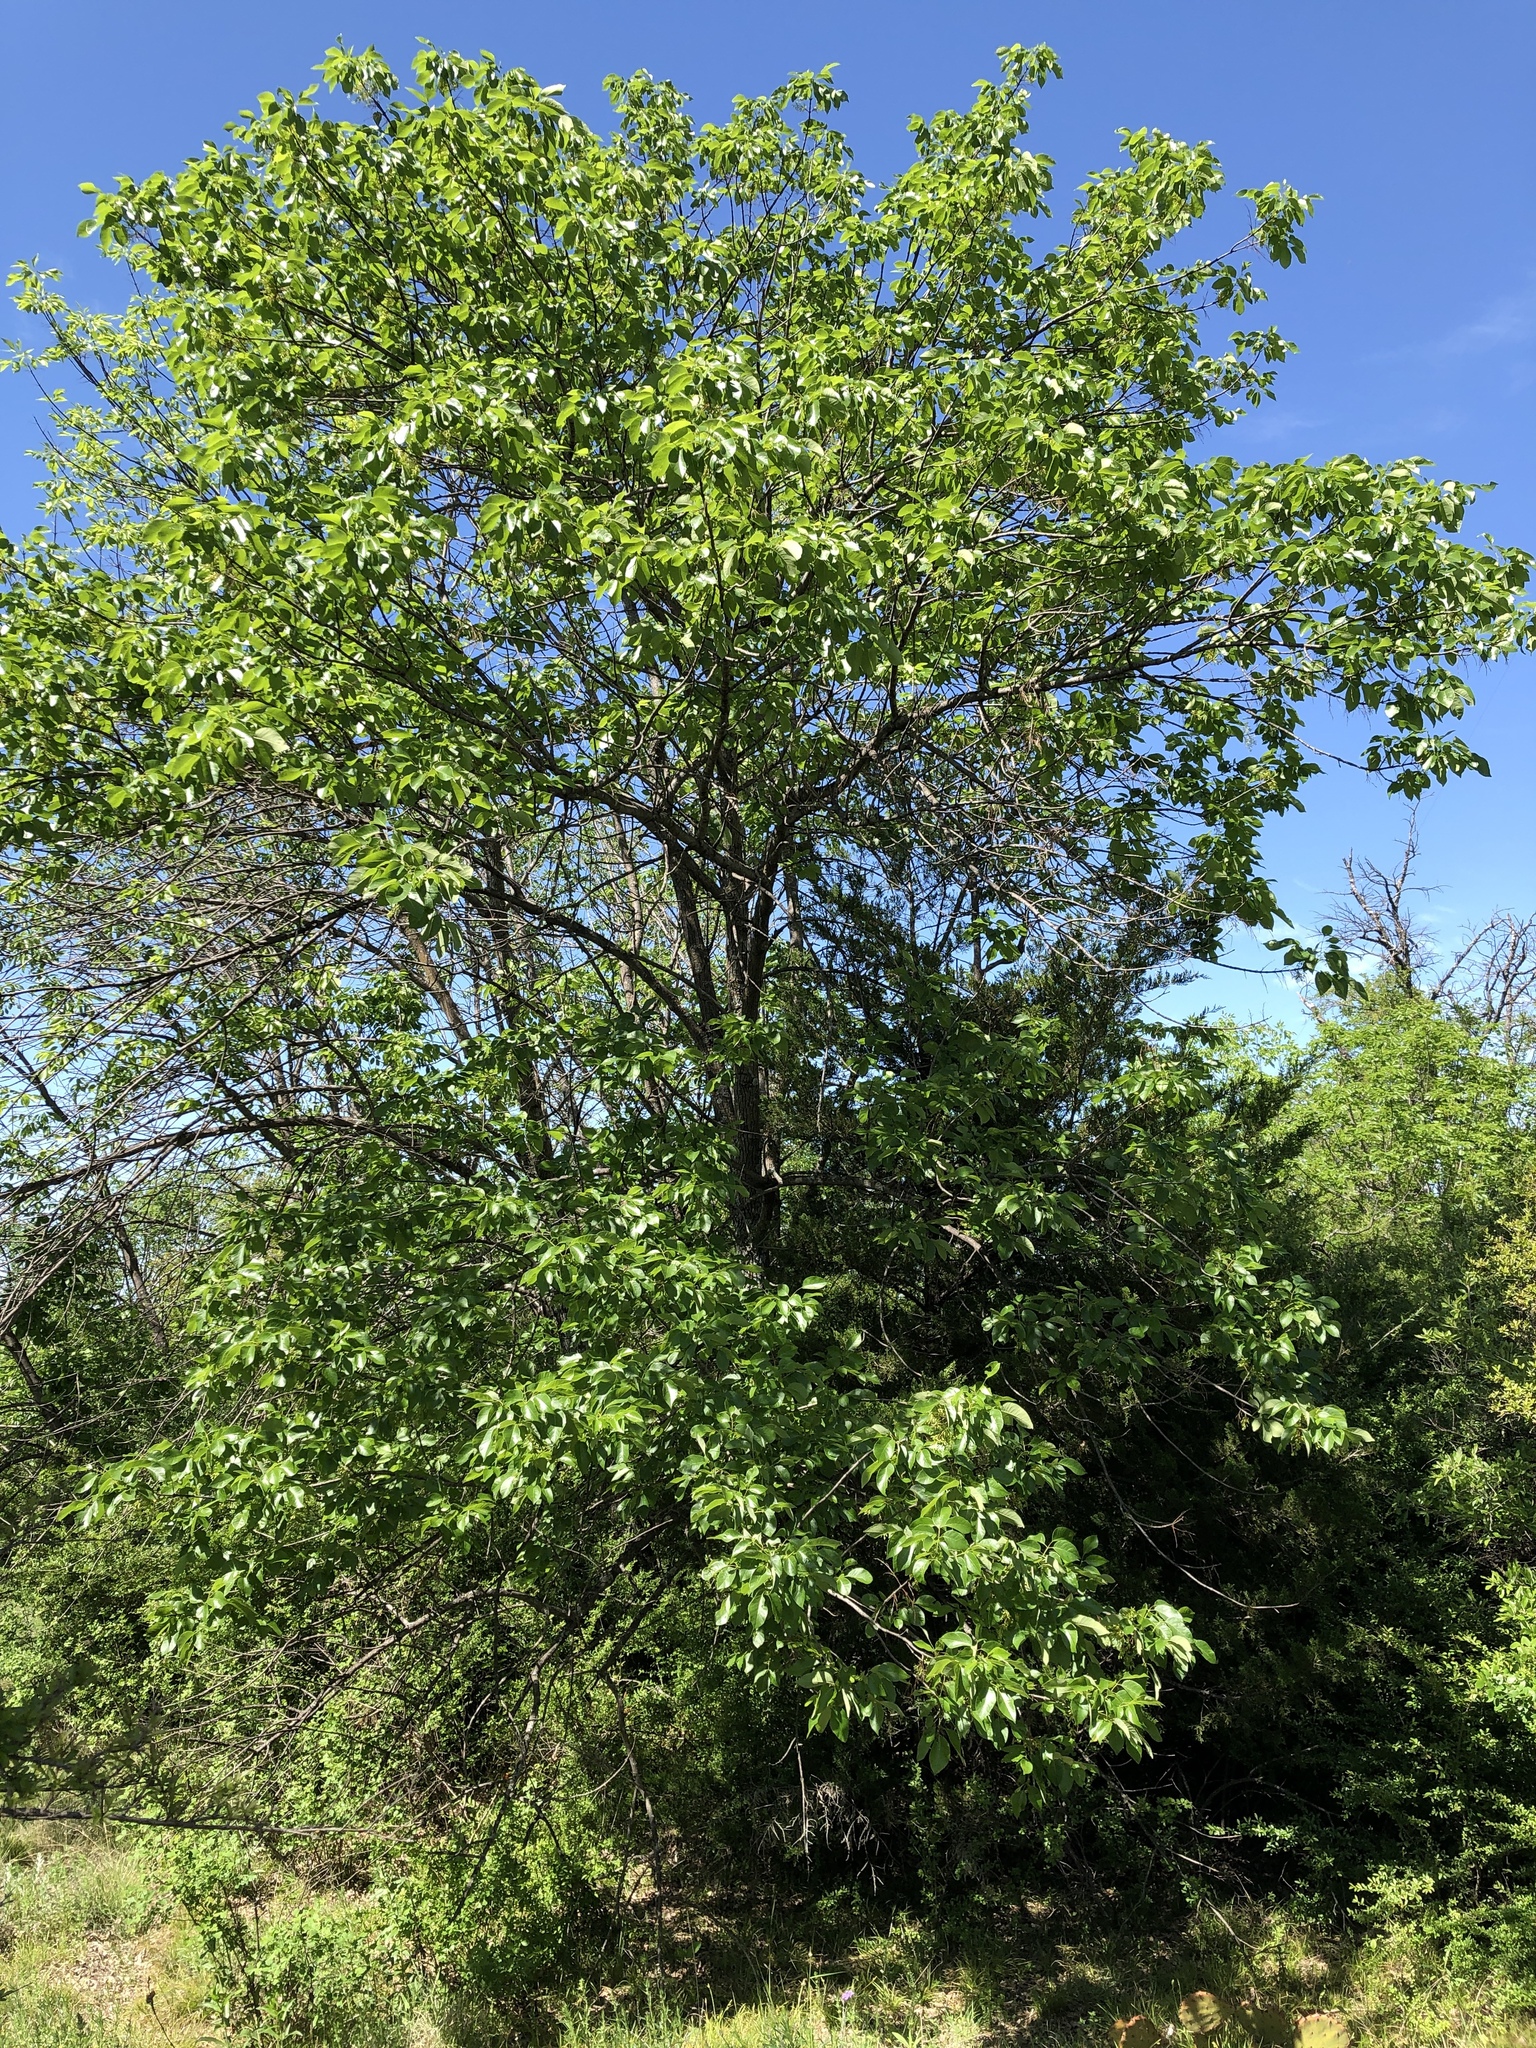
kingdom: Plantae
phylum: Tracheophyta
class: Magnoliopsida
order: Lamiales
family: Oleaceae
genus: Fraxinus
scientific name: Fraxinus albicans
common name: Texas ash
